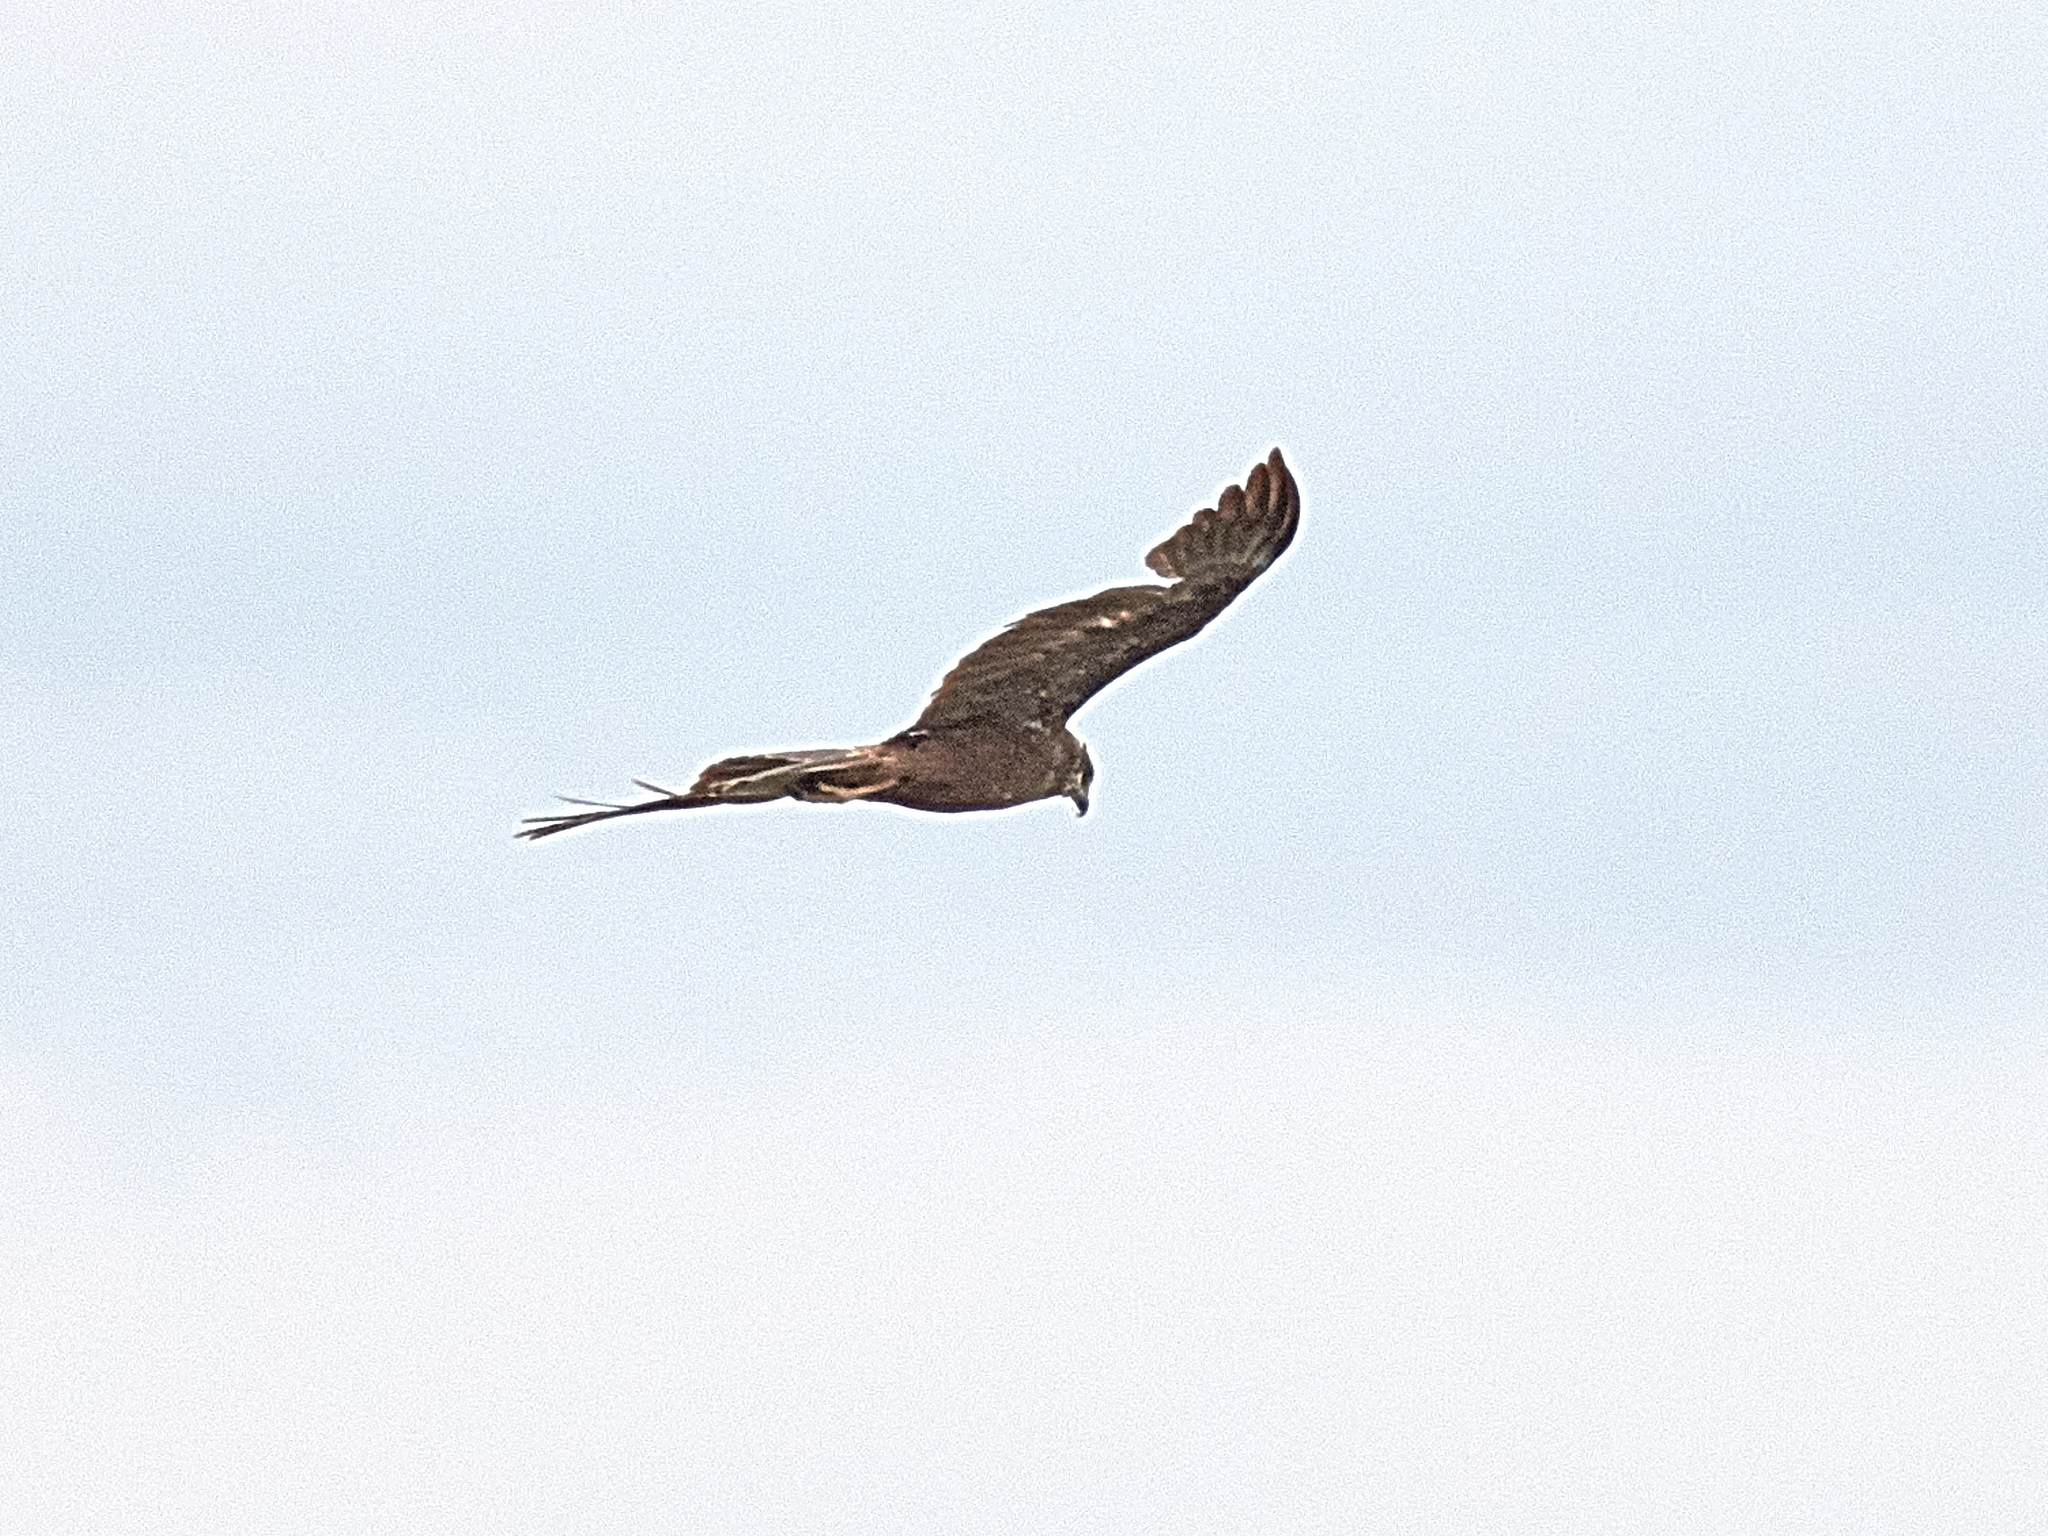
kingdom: Animalia
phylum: Chordata
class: Aves
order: Accipitriformes
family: Accipitridae
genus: Circus
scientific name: Circus aeruginosus
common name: Western marsh harrier
